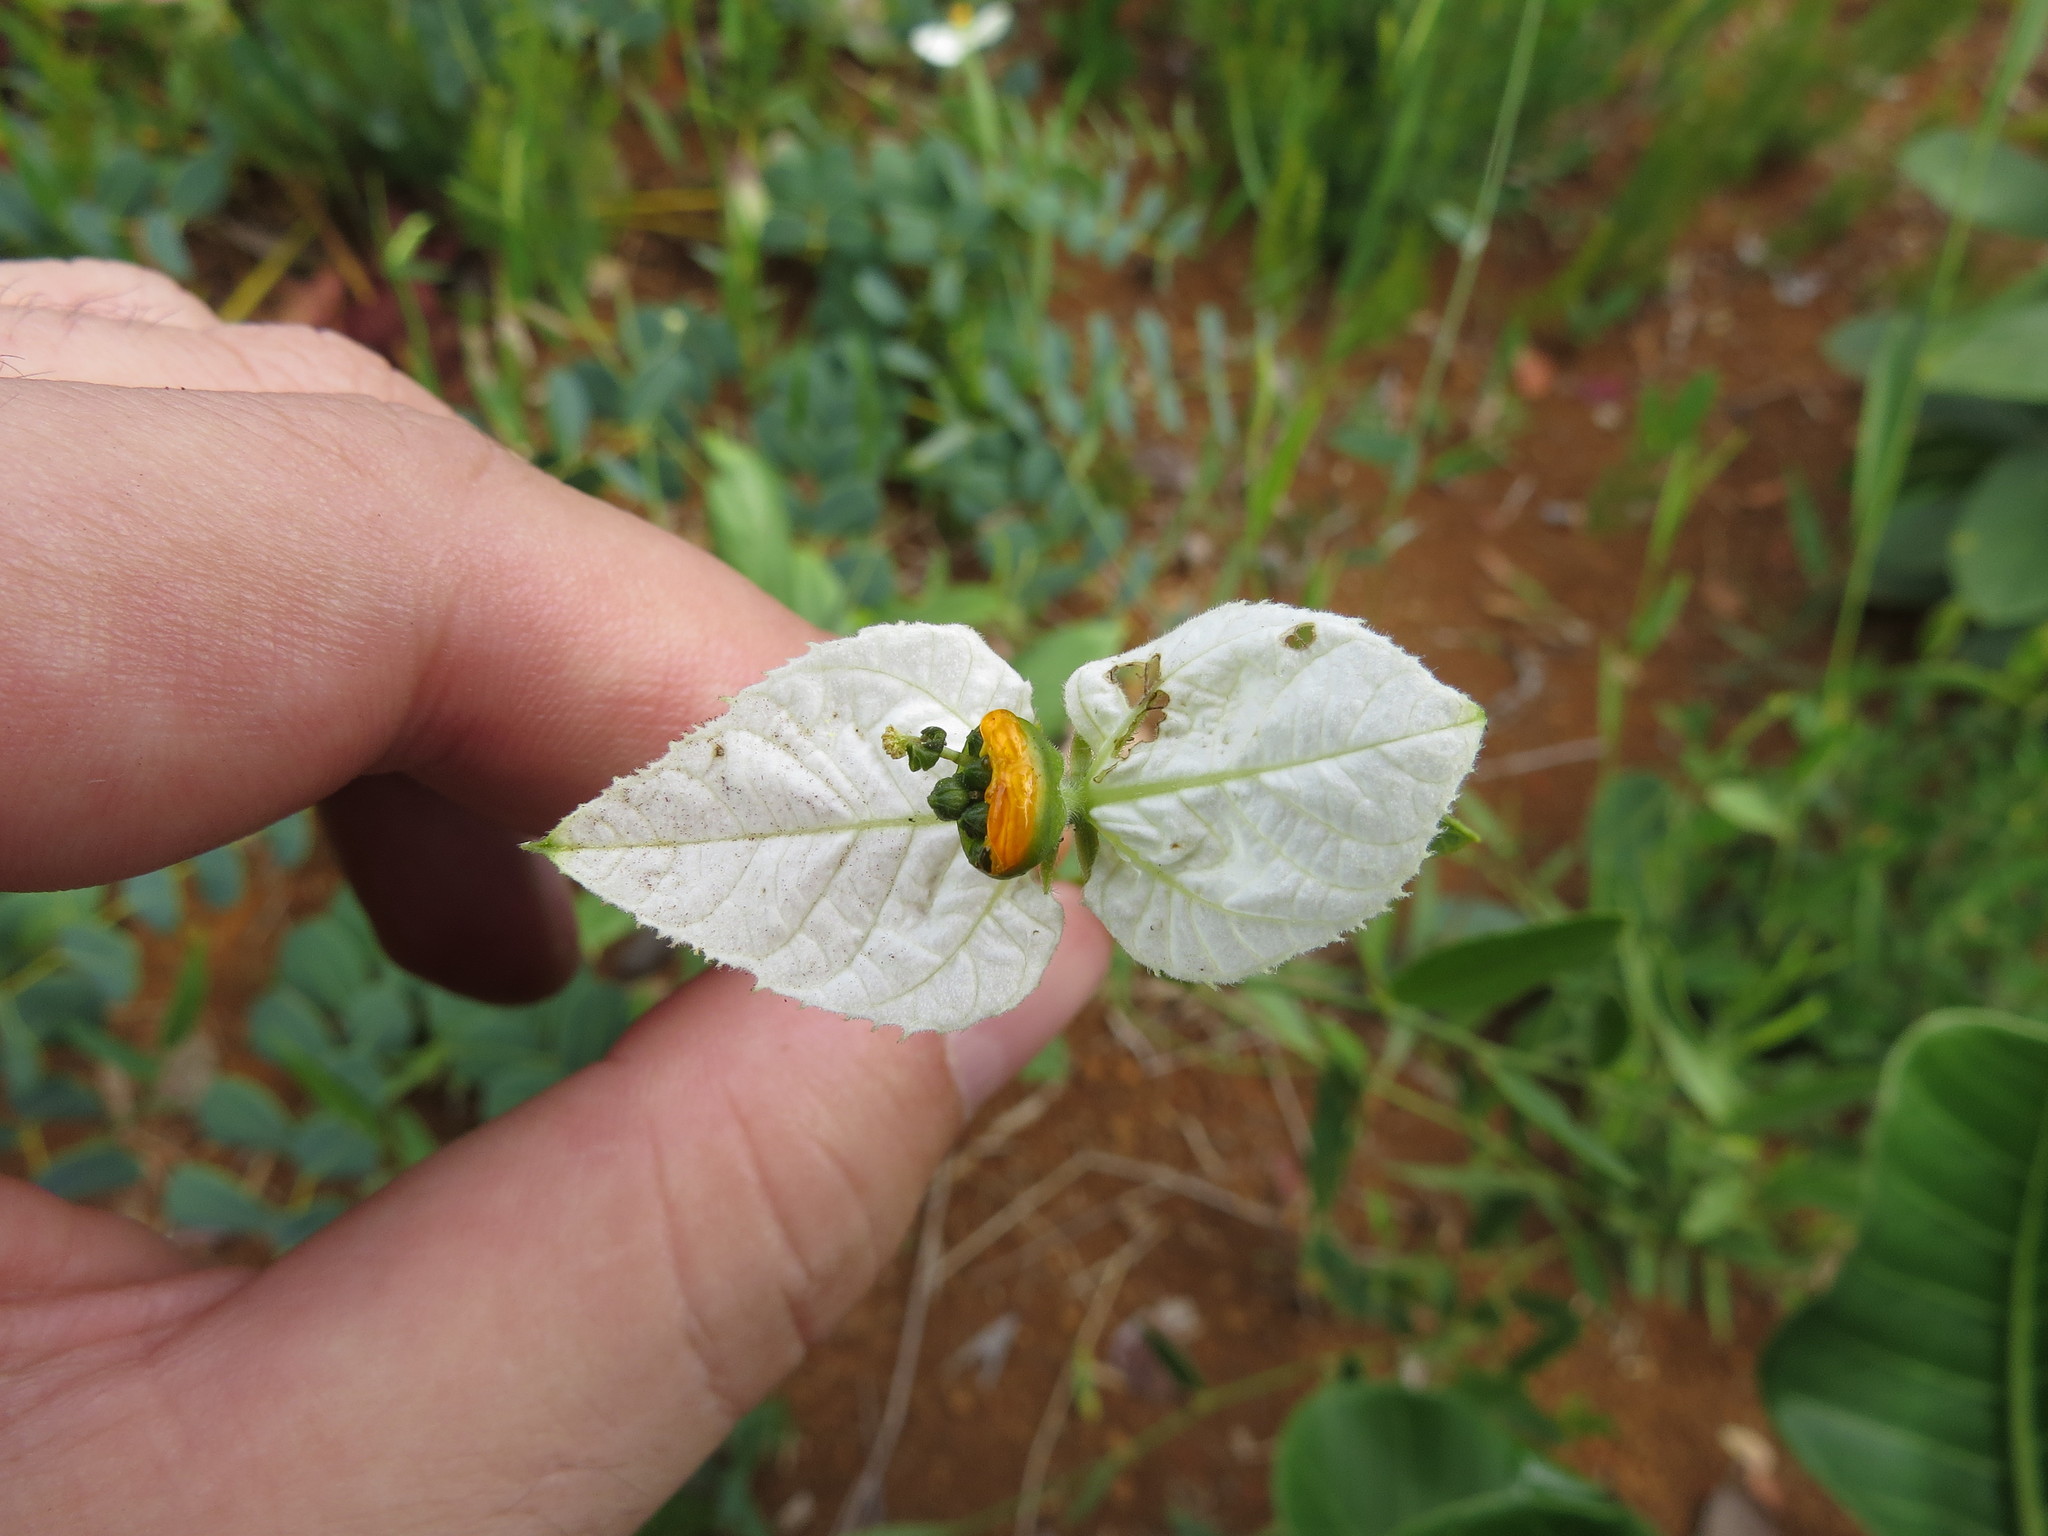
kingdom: Plantae
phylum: Tracheophyta
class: Magnoliopsida
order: Malpighiales
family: Euphorbiaceae
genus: Dalechampia
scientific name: Dalechampia caperonioides
